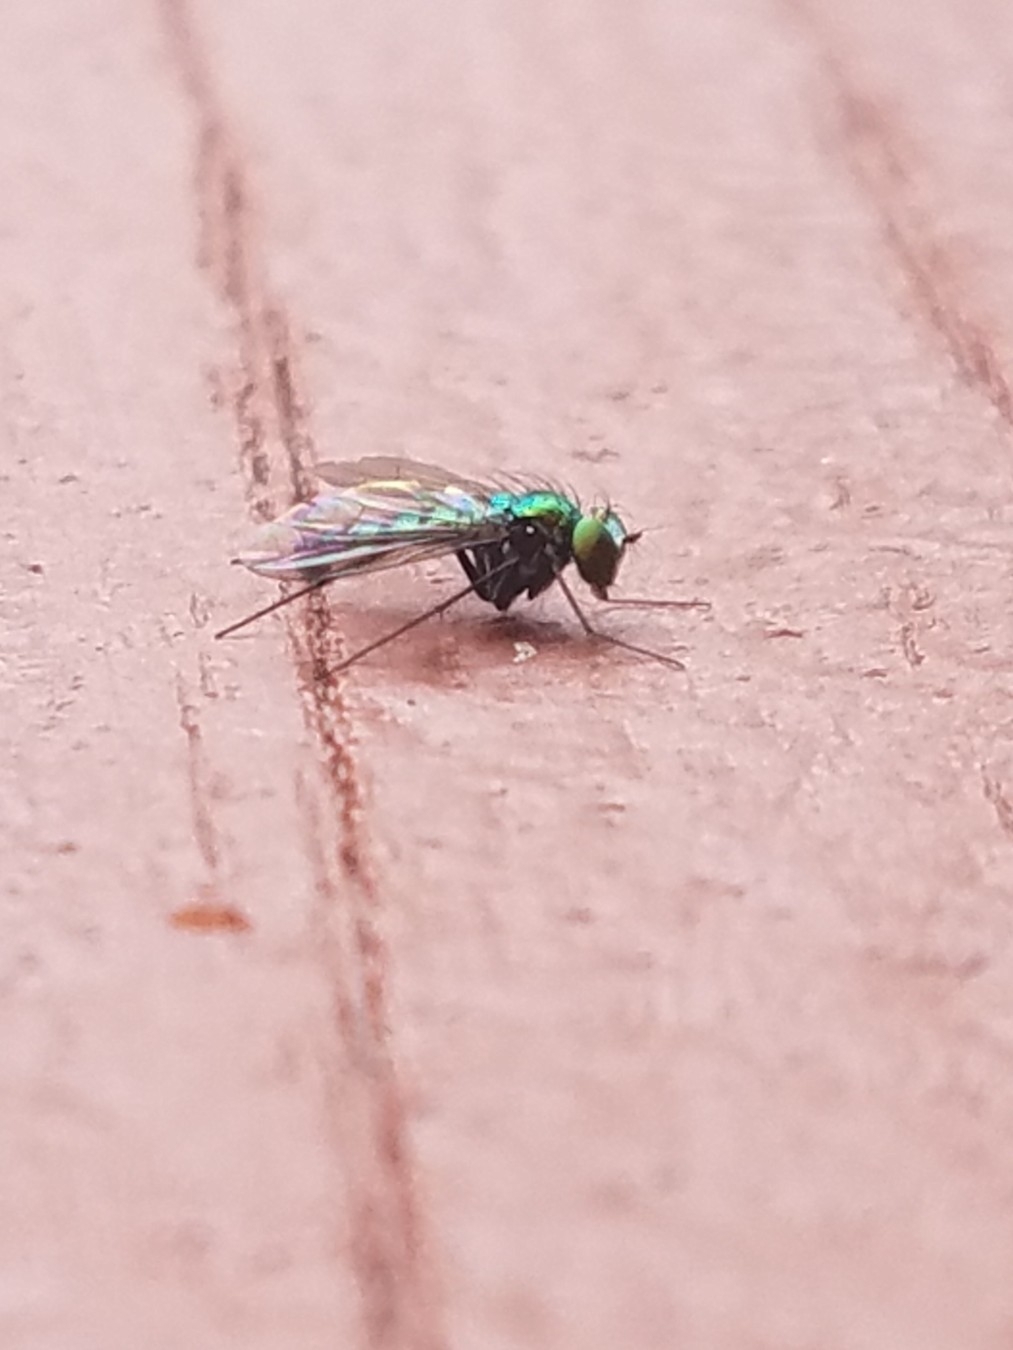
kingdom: Animalia
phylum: Arthropoda
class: Insecta
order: Diptera
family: Dolichopodidae
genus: Condylostylus
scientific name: Condylostylus longicornis
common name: Long-legged fly
